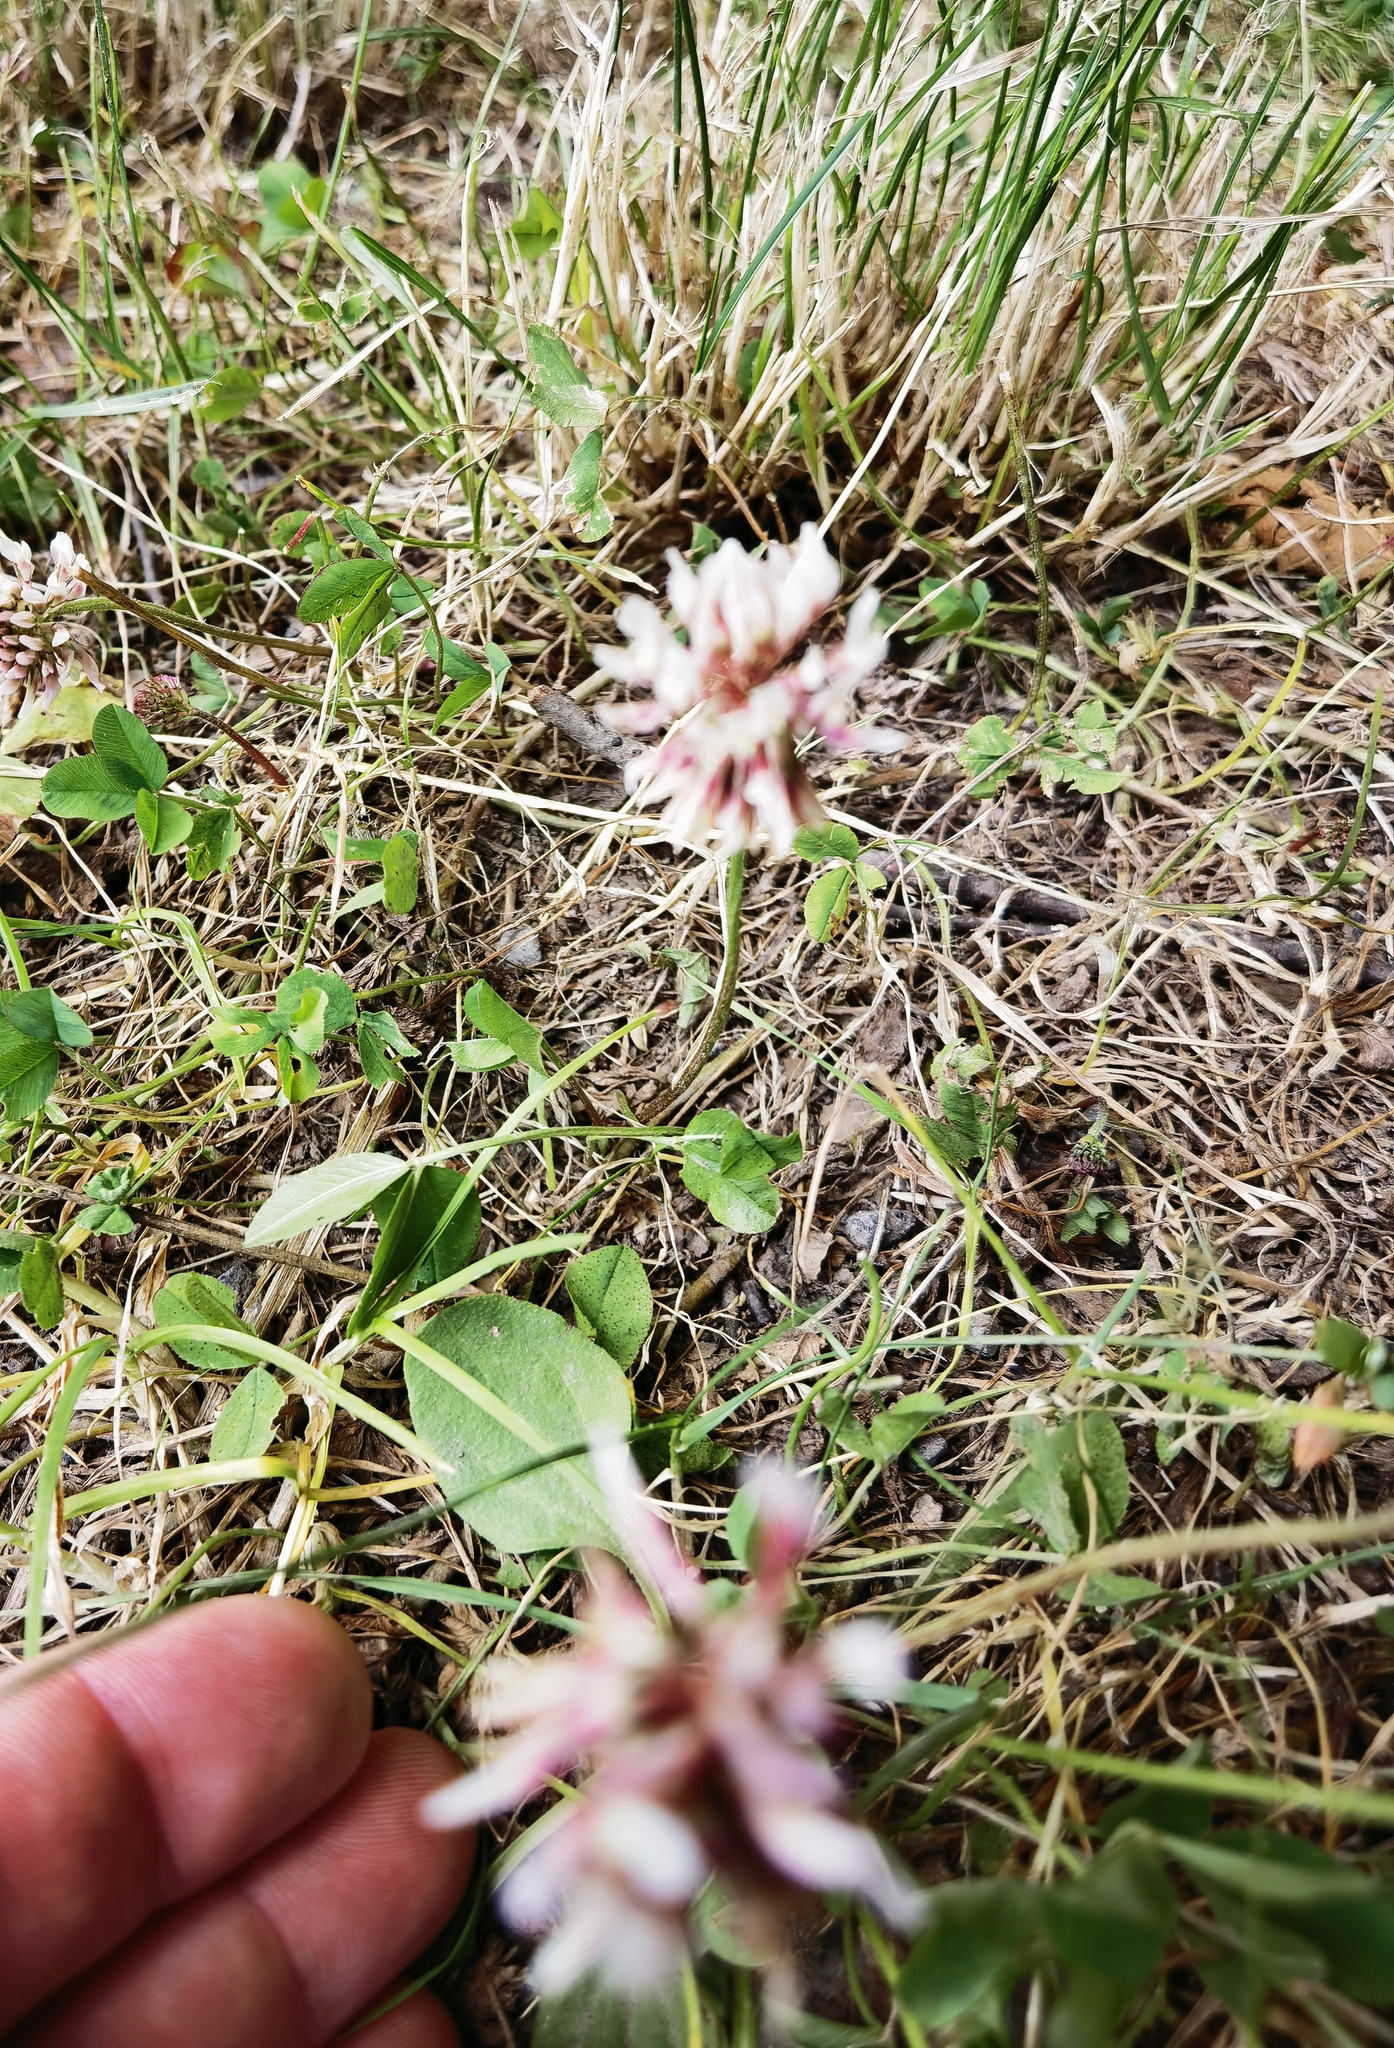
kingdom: Plantae
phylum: Tracheophyta
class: Magnoliopsida
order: Fabales
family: Fabaceae
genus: Trifolium
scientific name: Trifolium repens
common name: White clover
